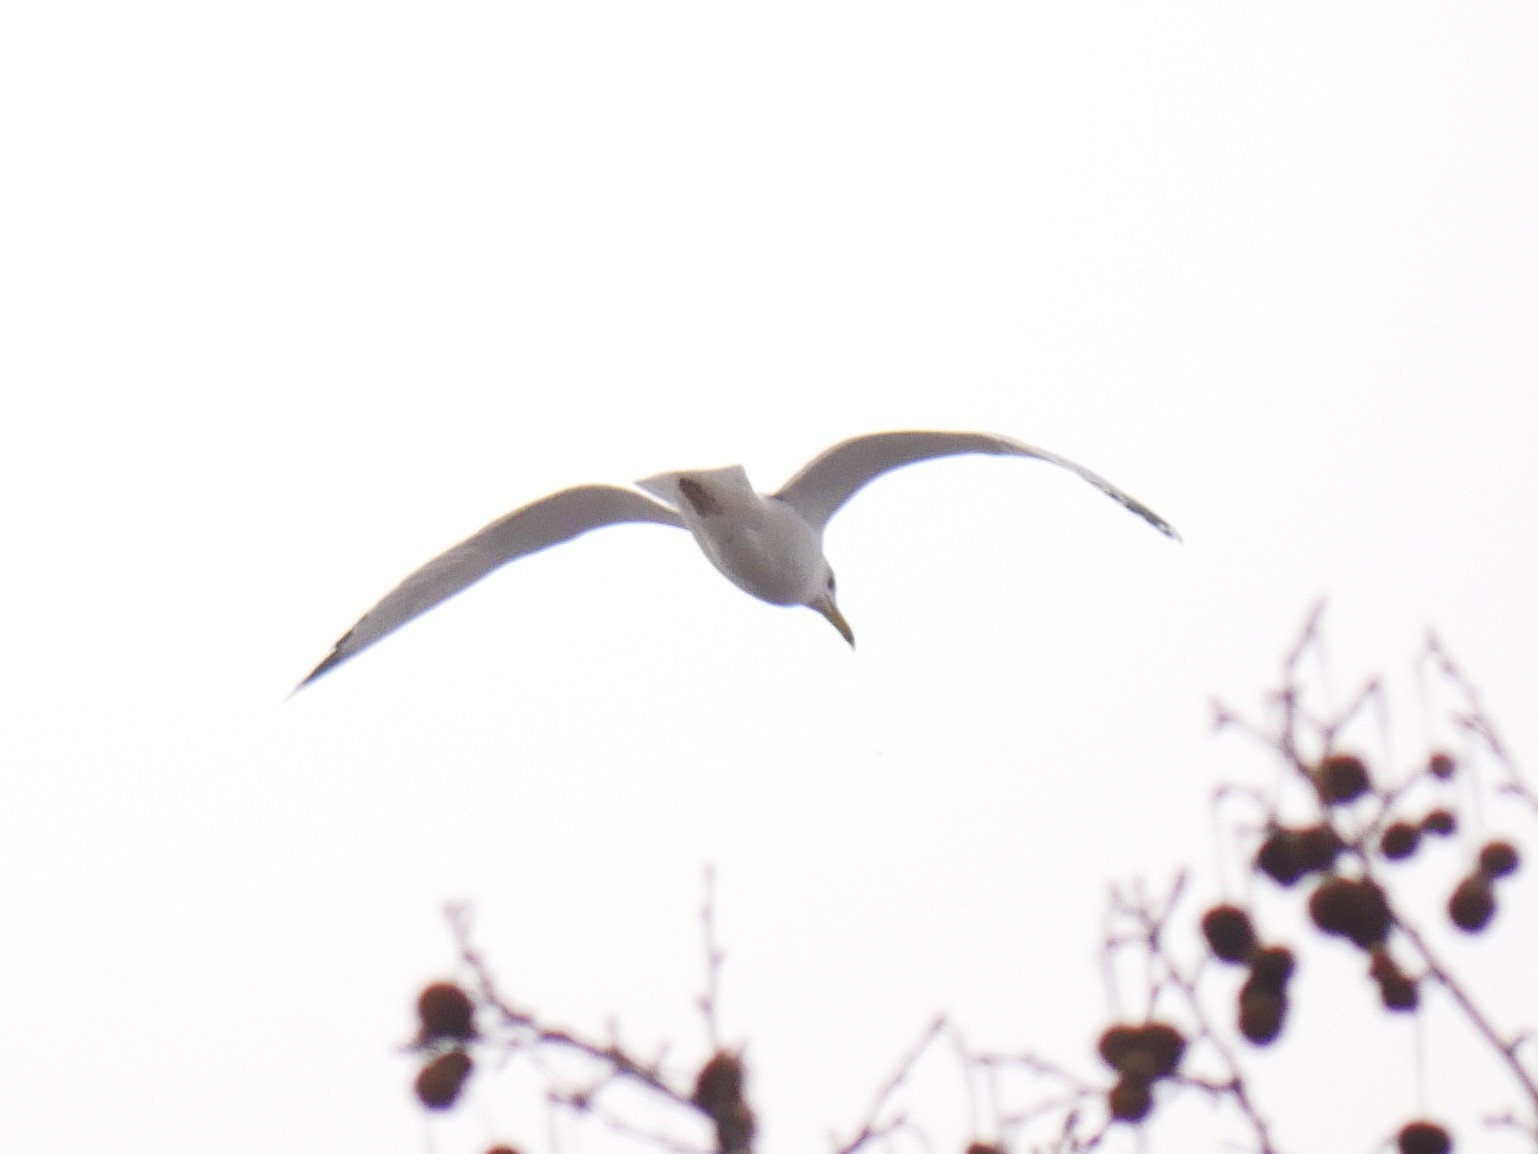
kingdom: Animalia
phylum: Chordata
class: Aves
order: Charadriiformes
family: Laridae
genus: Larus
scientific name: Larus argentatus
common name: Herring gull
